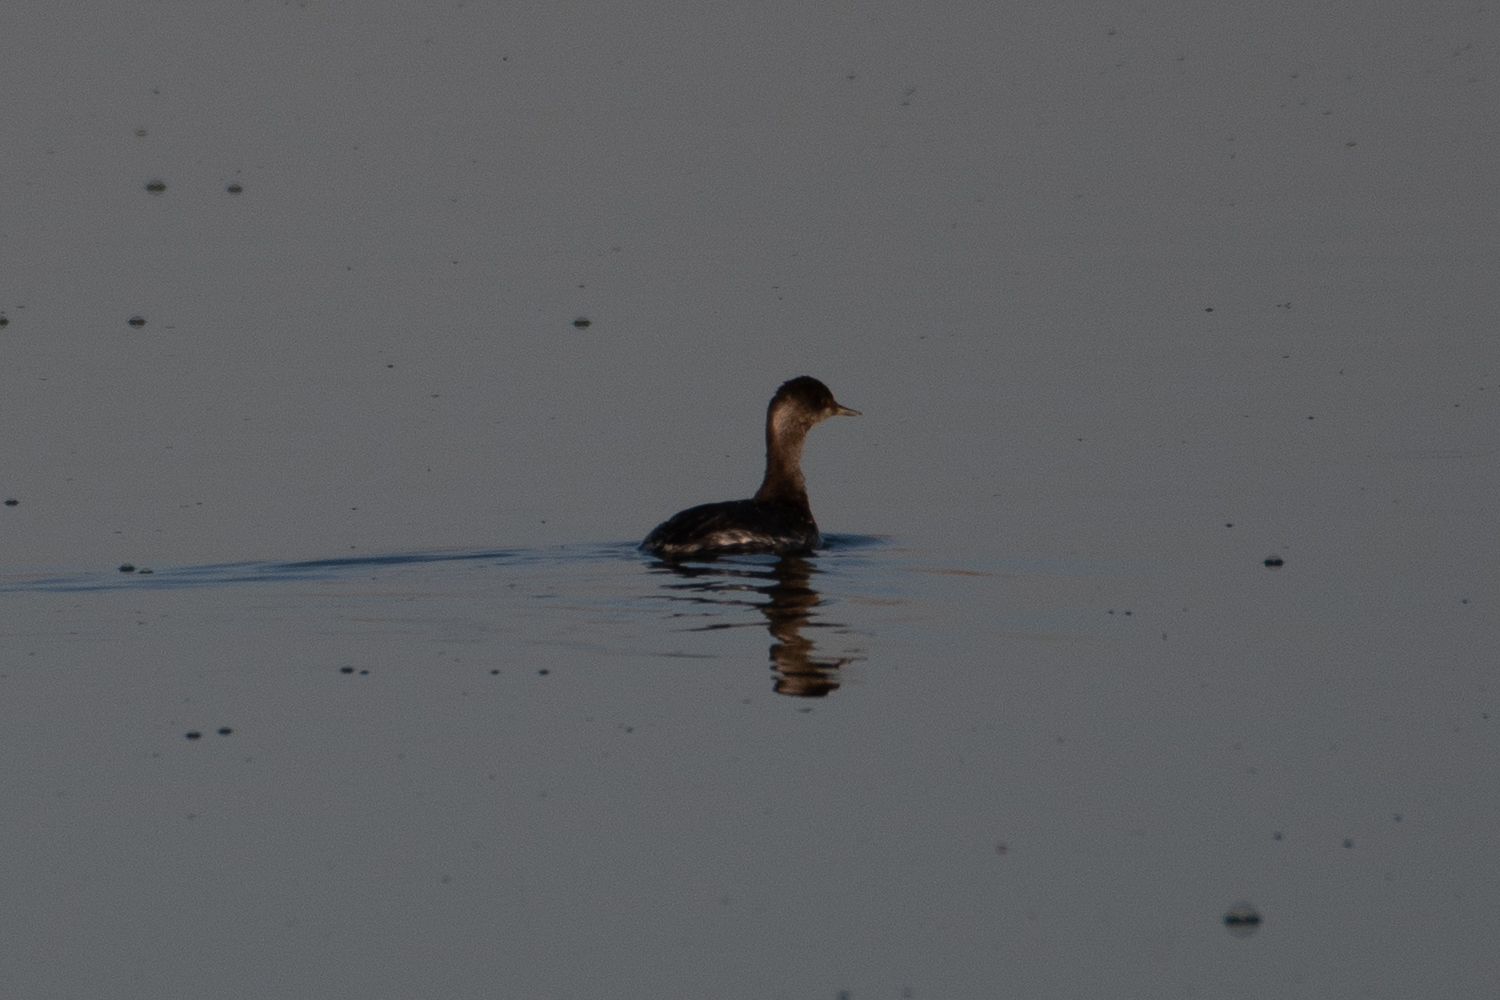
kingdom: Animalia
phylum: Chordata
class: Aves
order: Podicipediformes
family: Podicipedidae
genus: Podiceps
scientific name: Podiceps nigricollis
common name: Black-necked grebe
